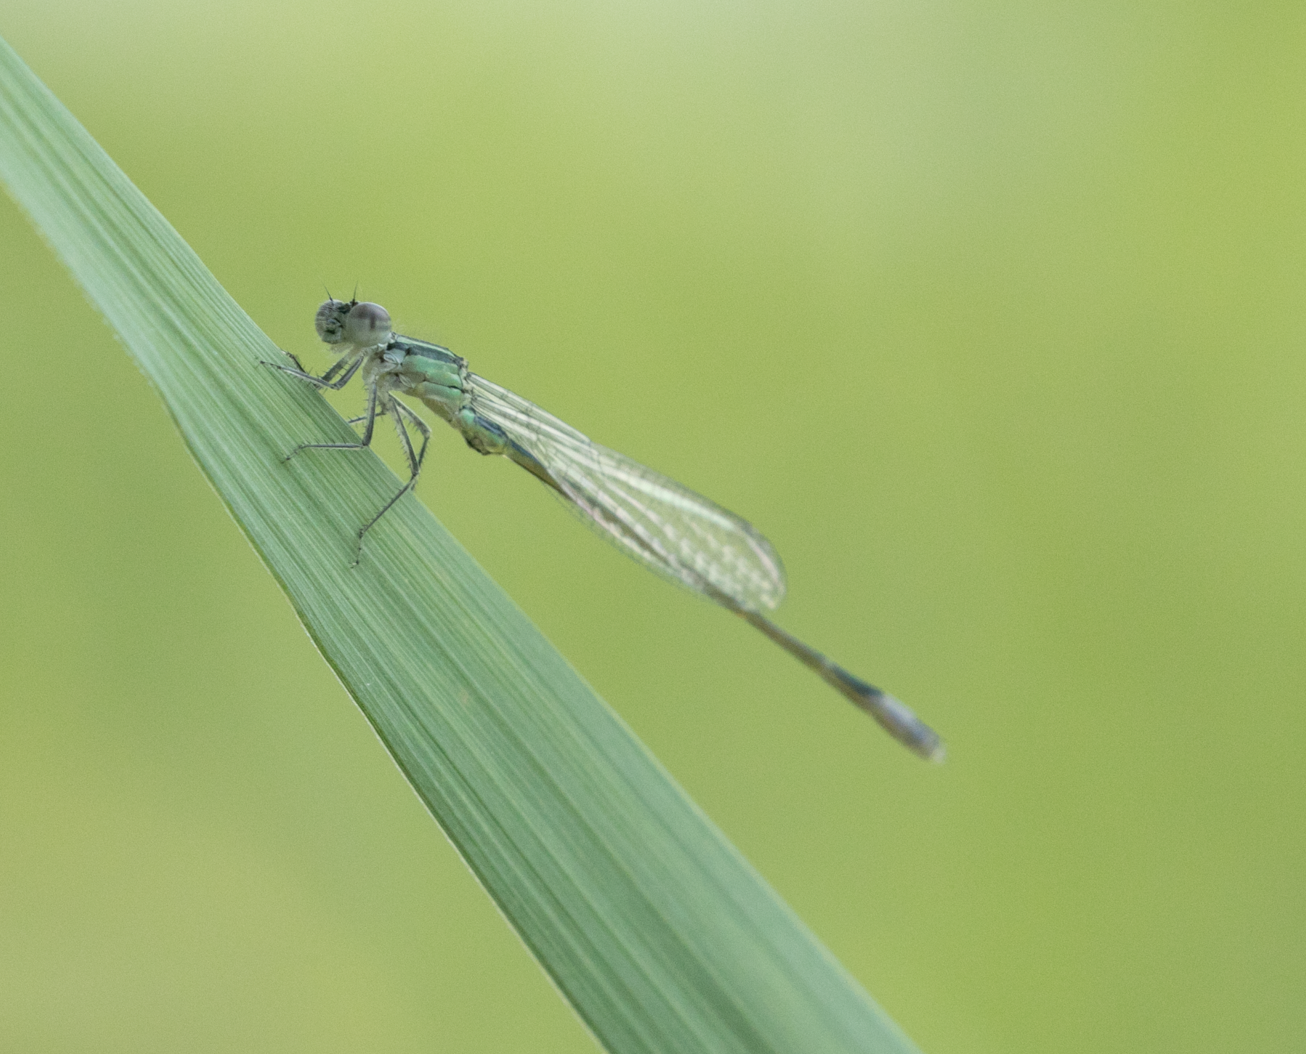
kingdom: Animalia
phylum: Arthropoda
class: Insecta
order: Odonata
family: Coenagrionidae
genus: Ischnura
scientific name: Ischnura elegans
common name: Blue-tailed damselfly
